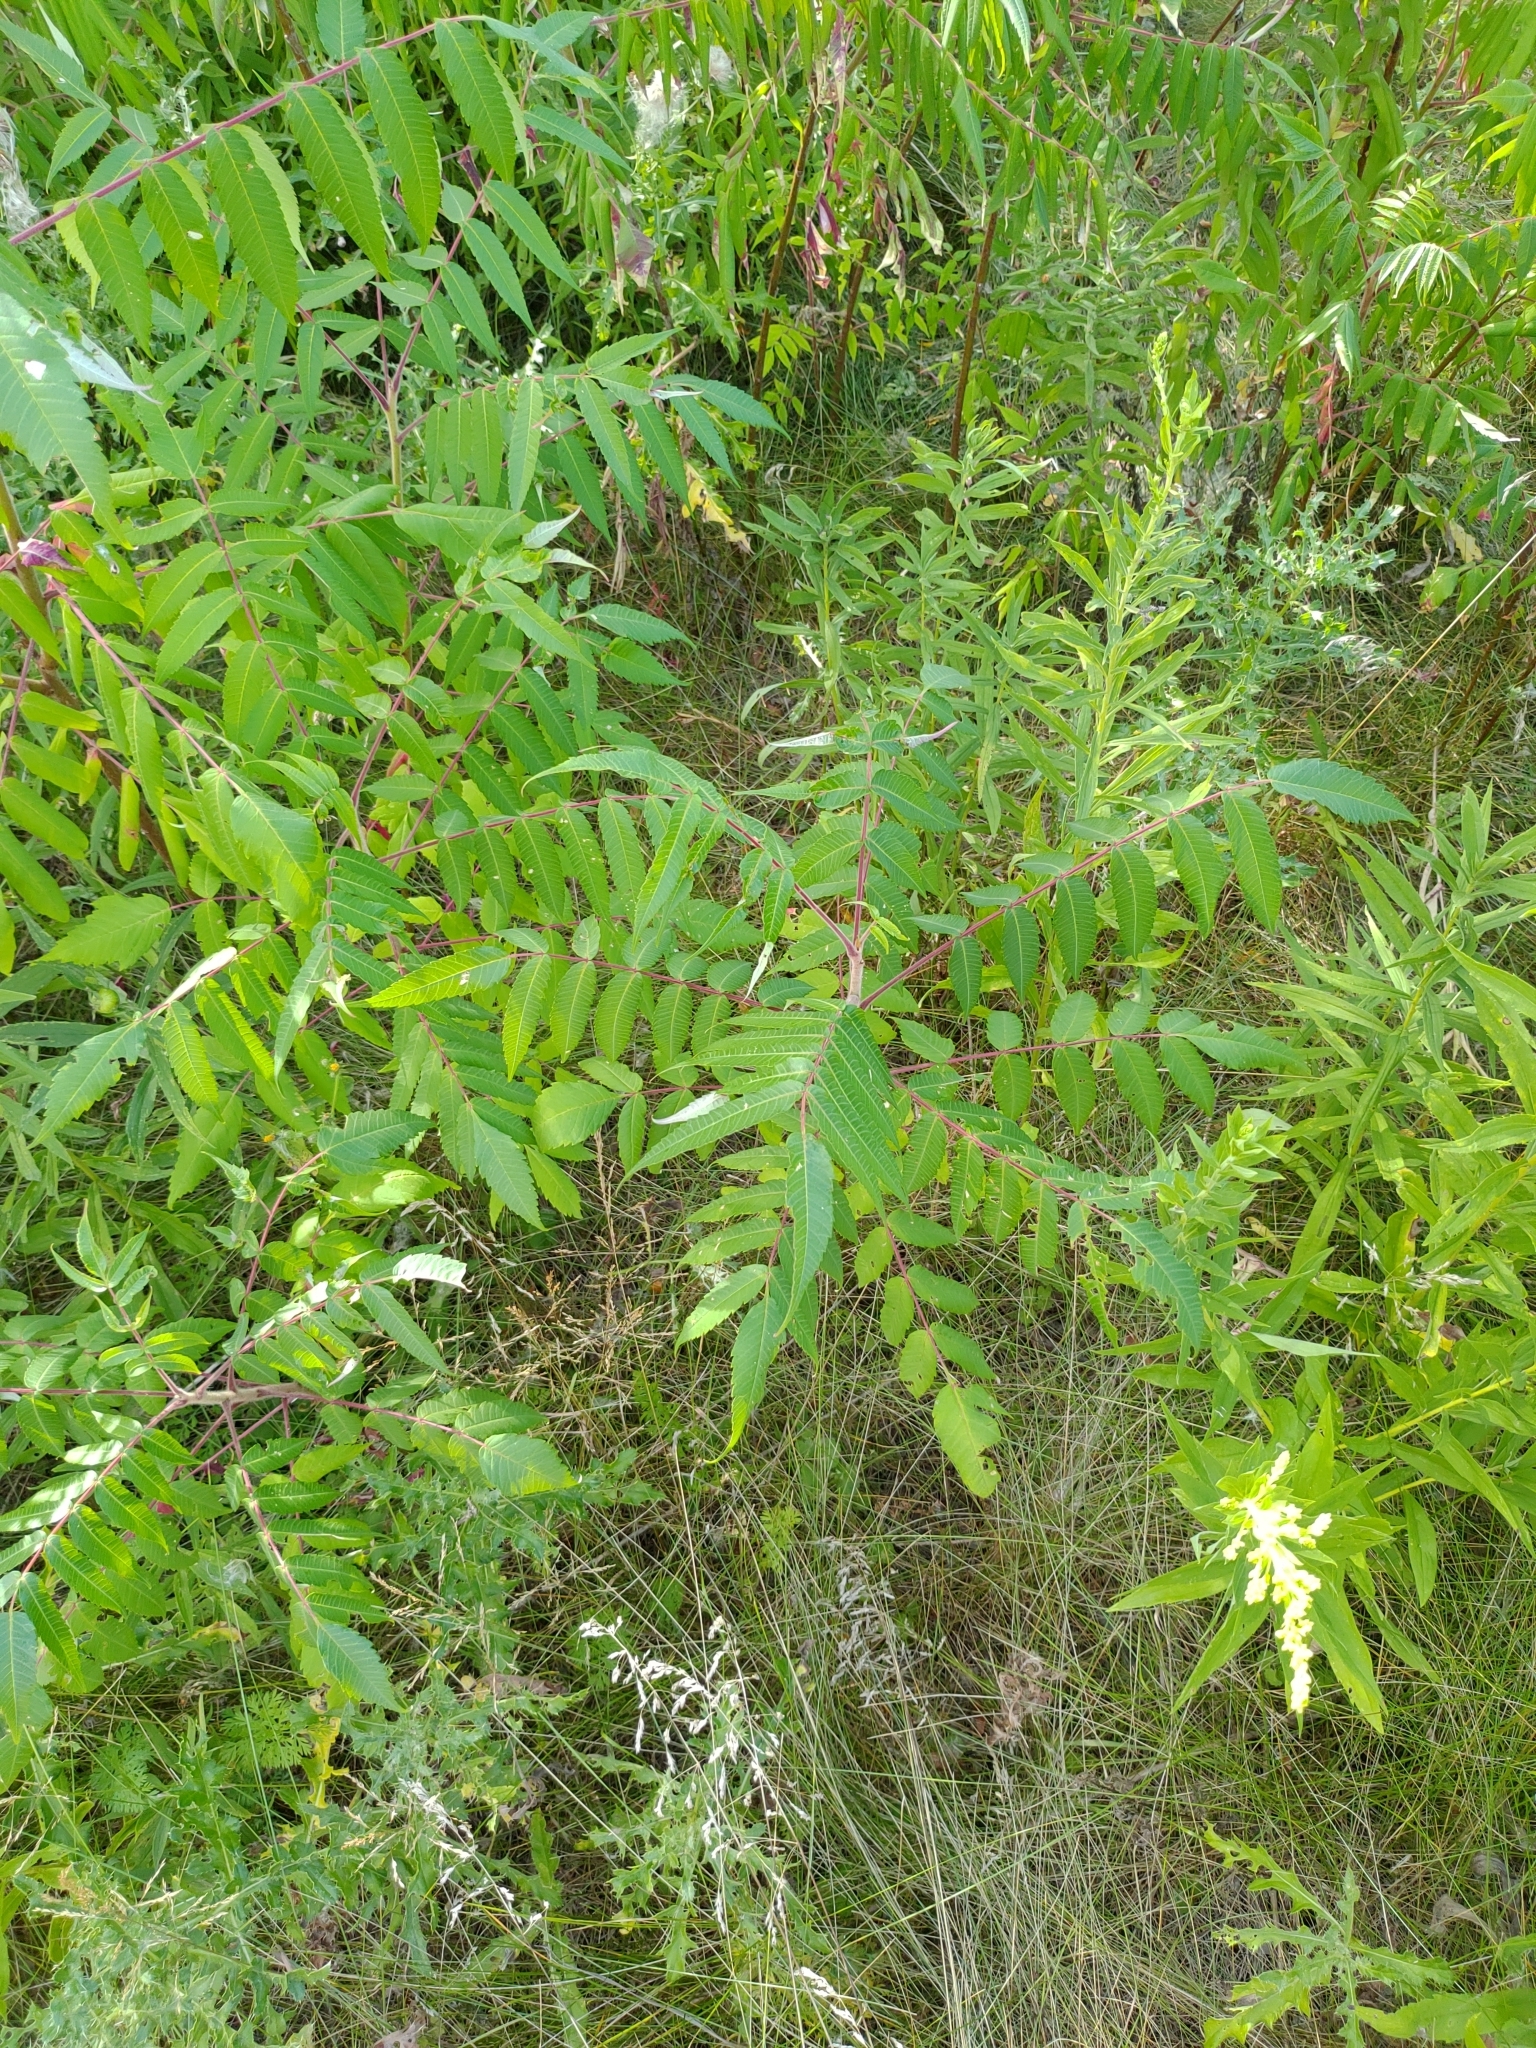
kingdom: Plantae
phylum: Tracheophyta
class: Magnoliopsida
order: Sapindales
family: Anacardiaceae
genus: Rhus
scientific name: Rhus typhina
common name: Staghorn sumac
